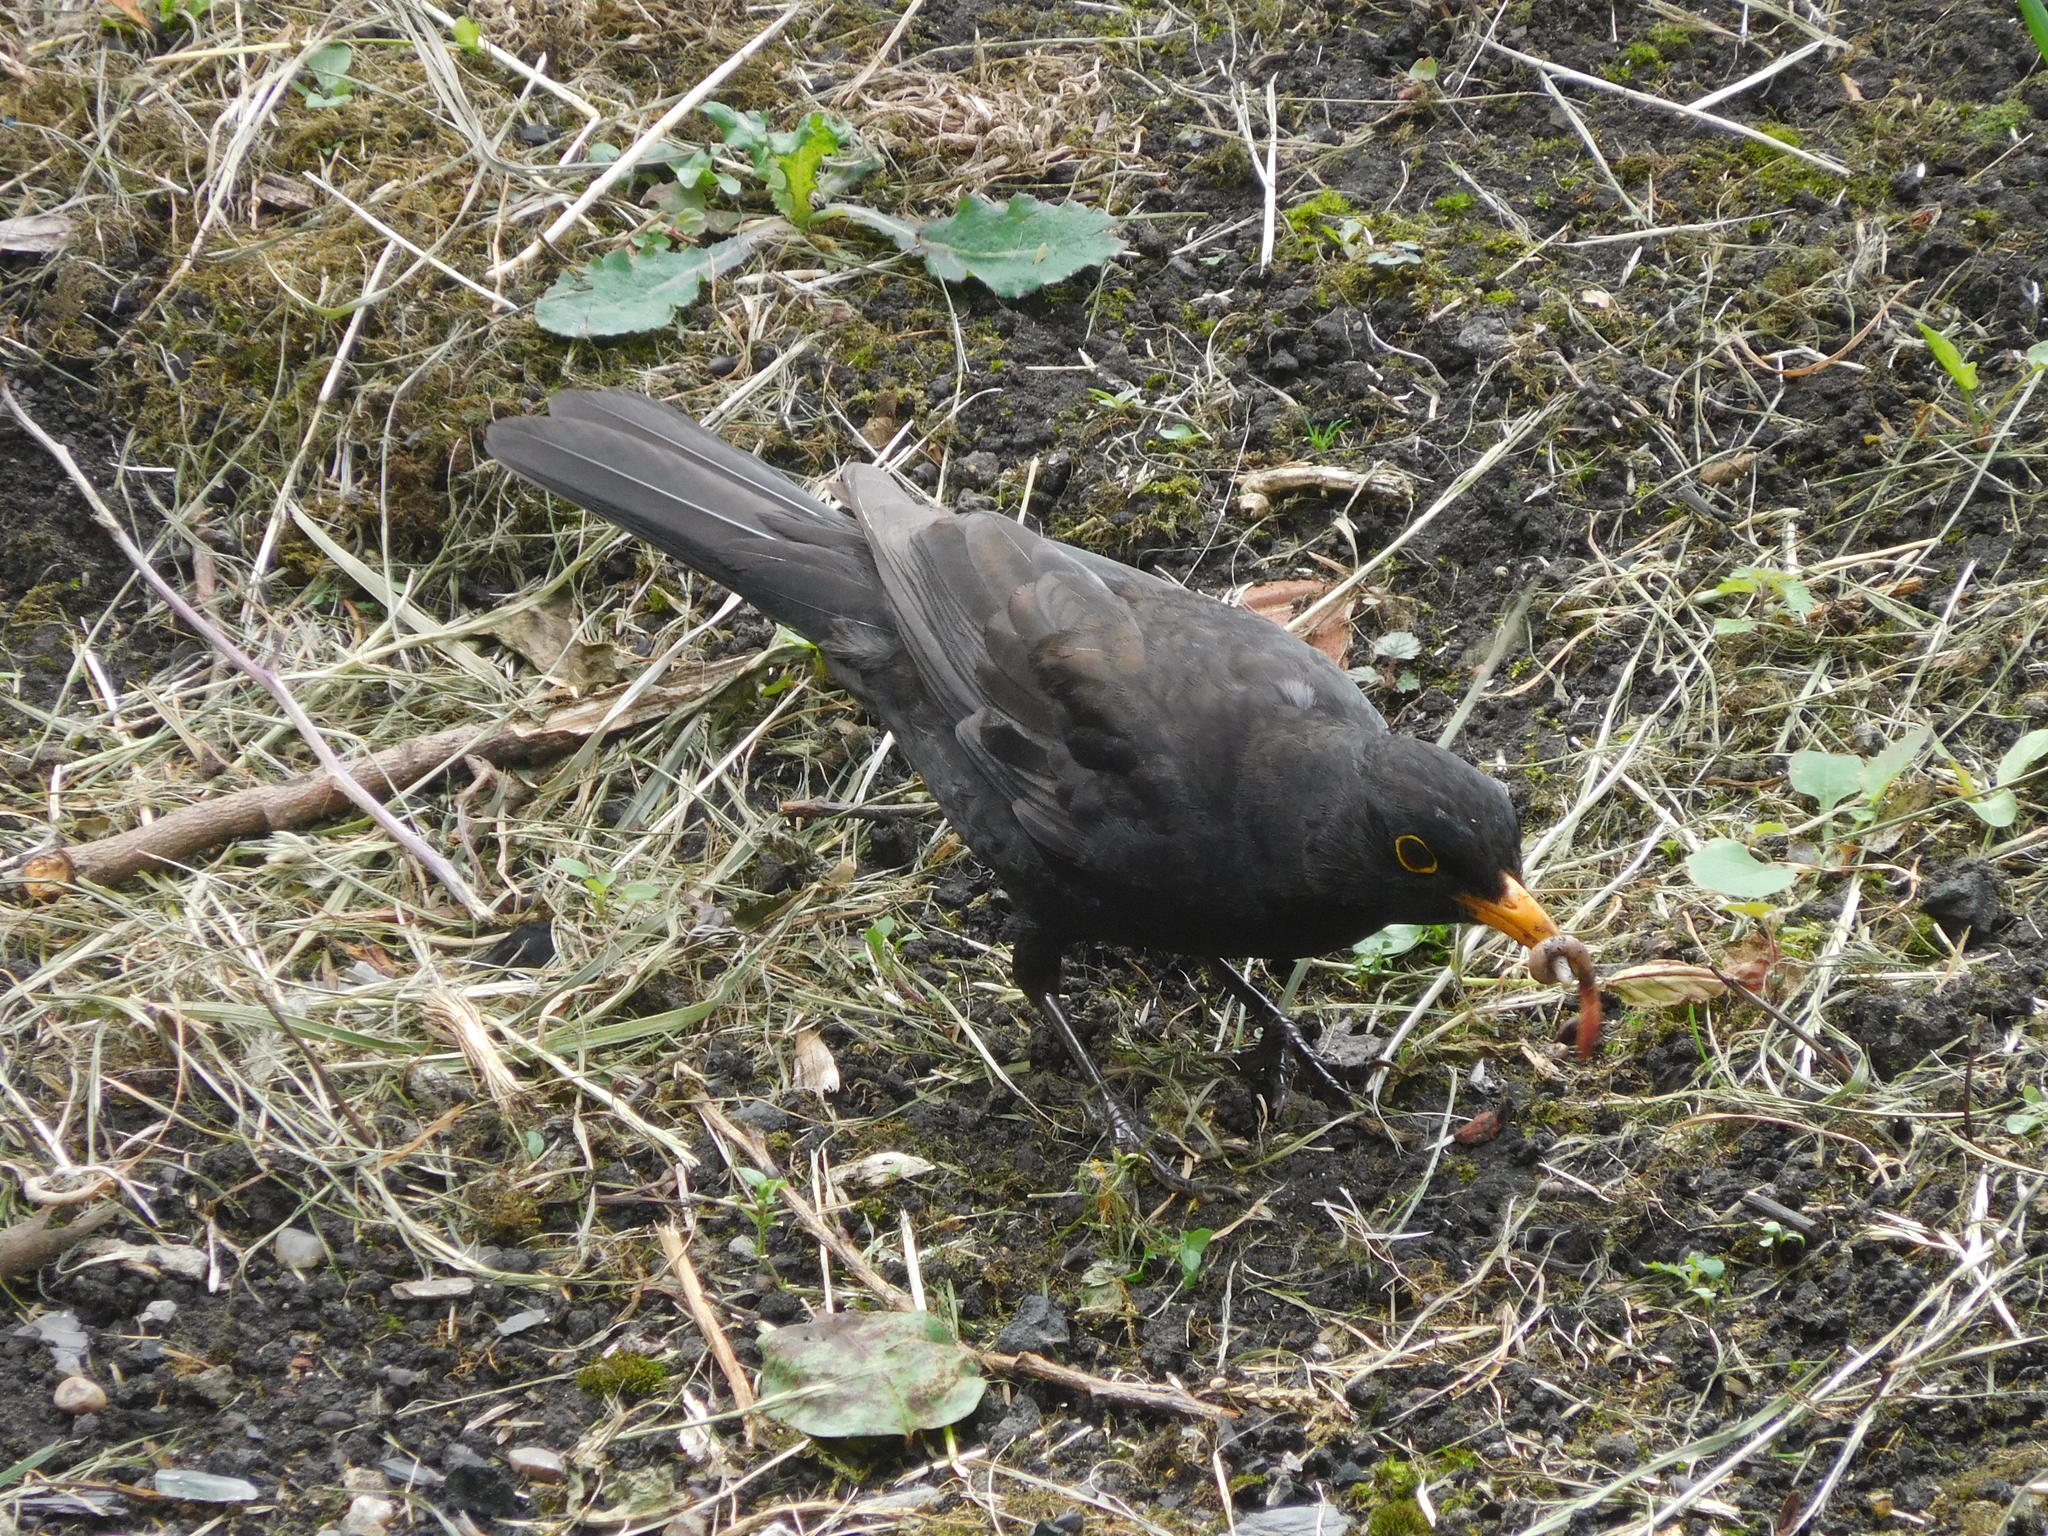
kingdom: Animalia
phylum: Chordata
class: Aves
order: Passeriformes
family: Turdidae
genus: Turdus
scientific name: Turdus merula
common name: Common blackbird
